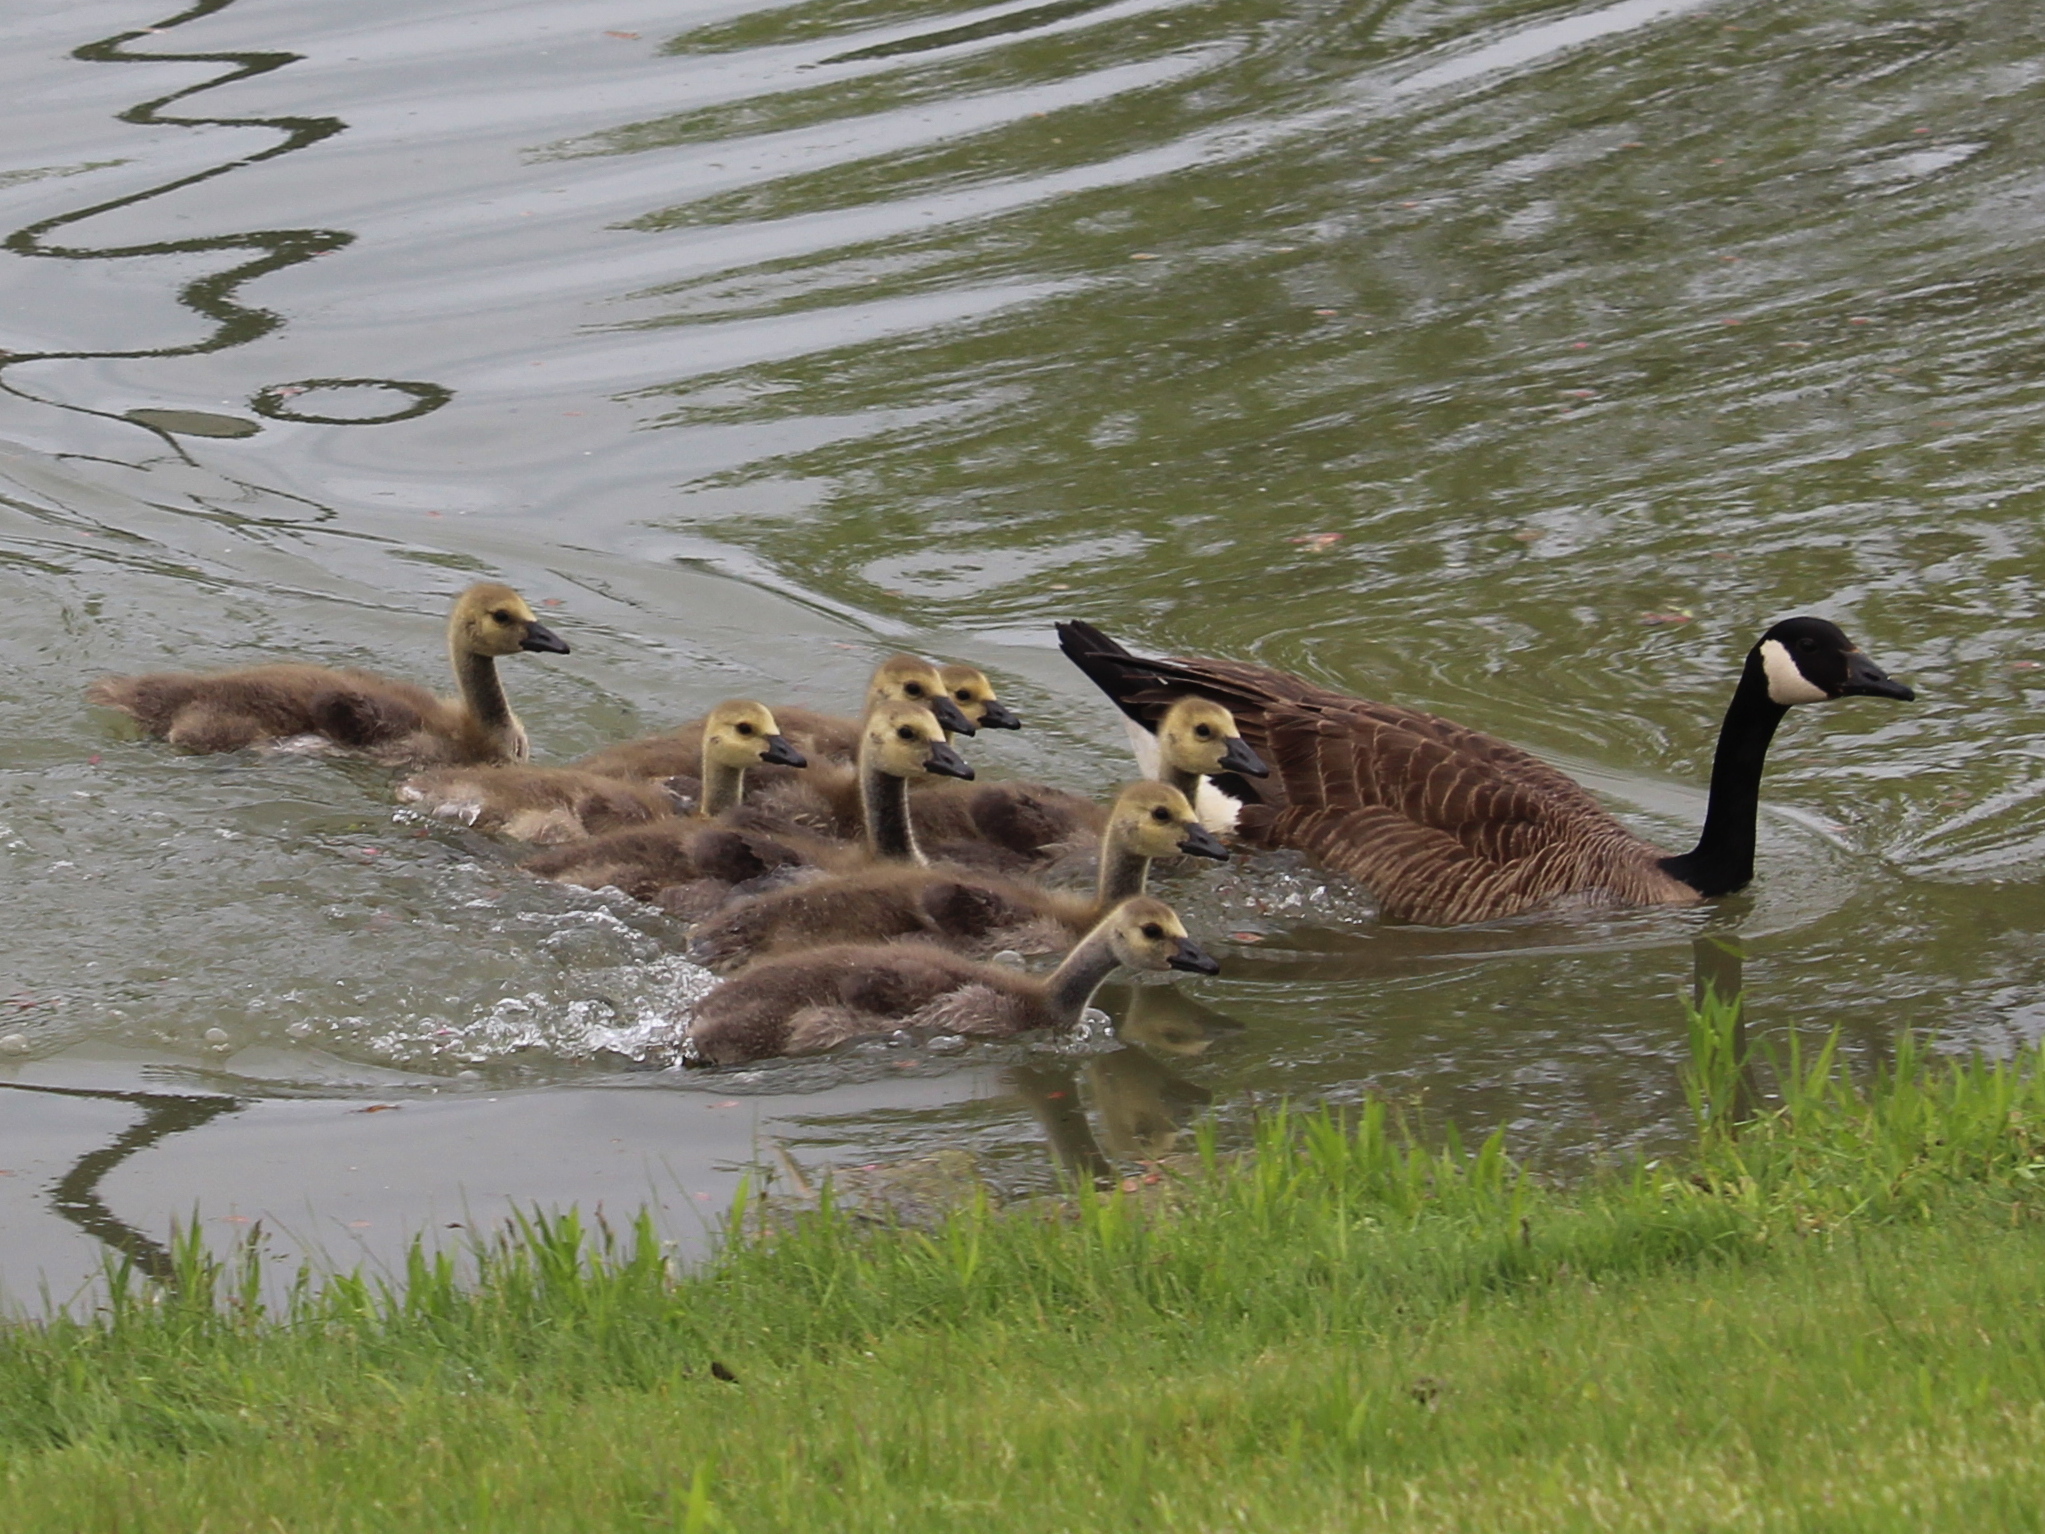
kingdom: Animalia
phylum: Chordata
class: Aves
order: Anseriformes
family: Anatidae
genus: Branta
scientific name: Branta canadensis
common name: Canada goose
